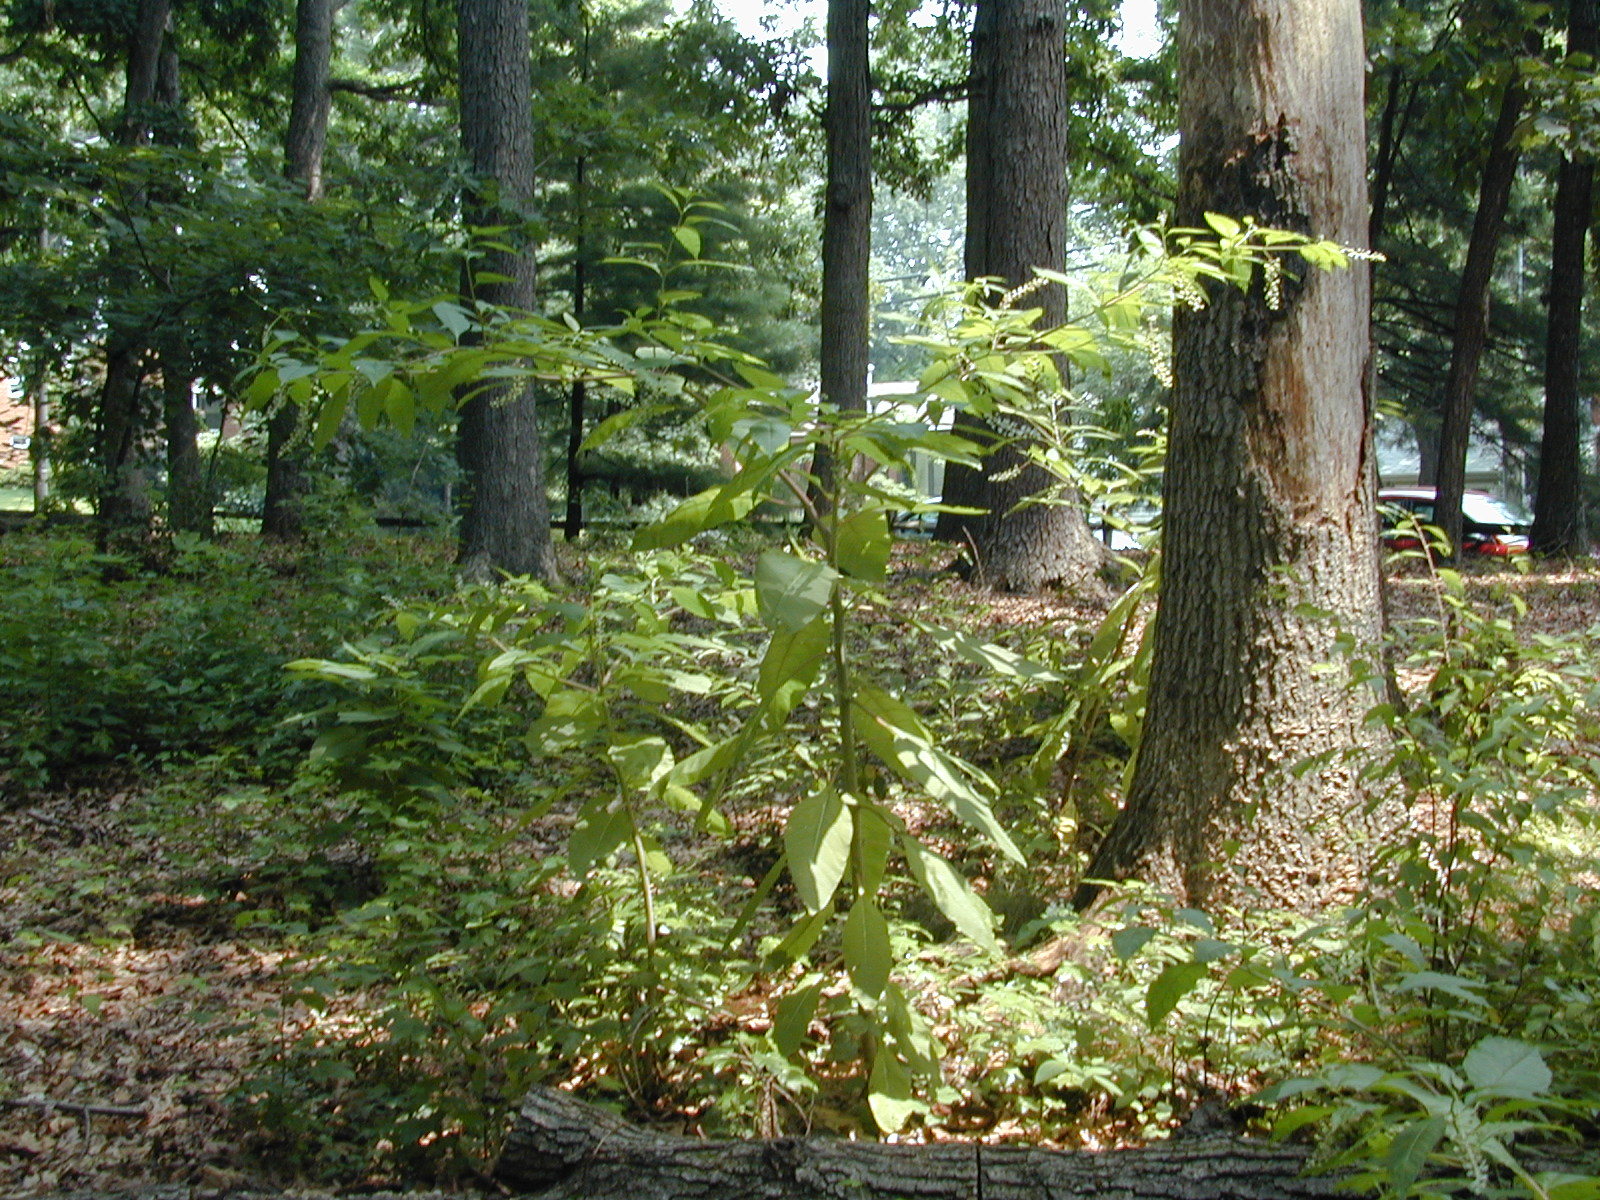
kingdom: Plantae
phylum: Tracheophyta
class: Magnoliopsida
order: Caryophyllales
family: Phytolaccaceae
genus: Phytolacca
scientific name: Phytolacca americana
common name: American pokeweed
